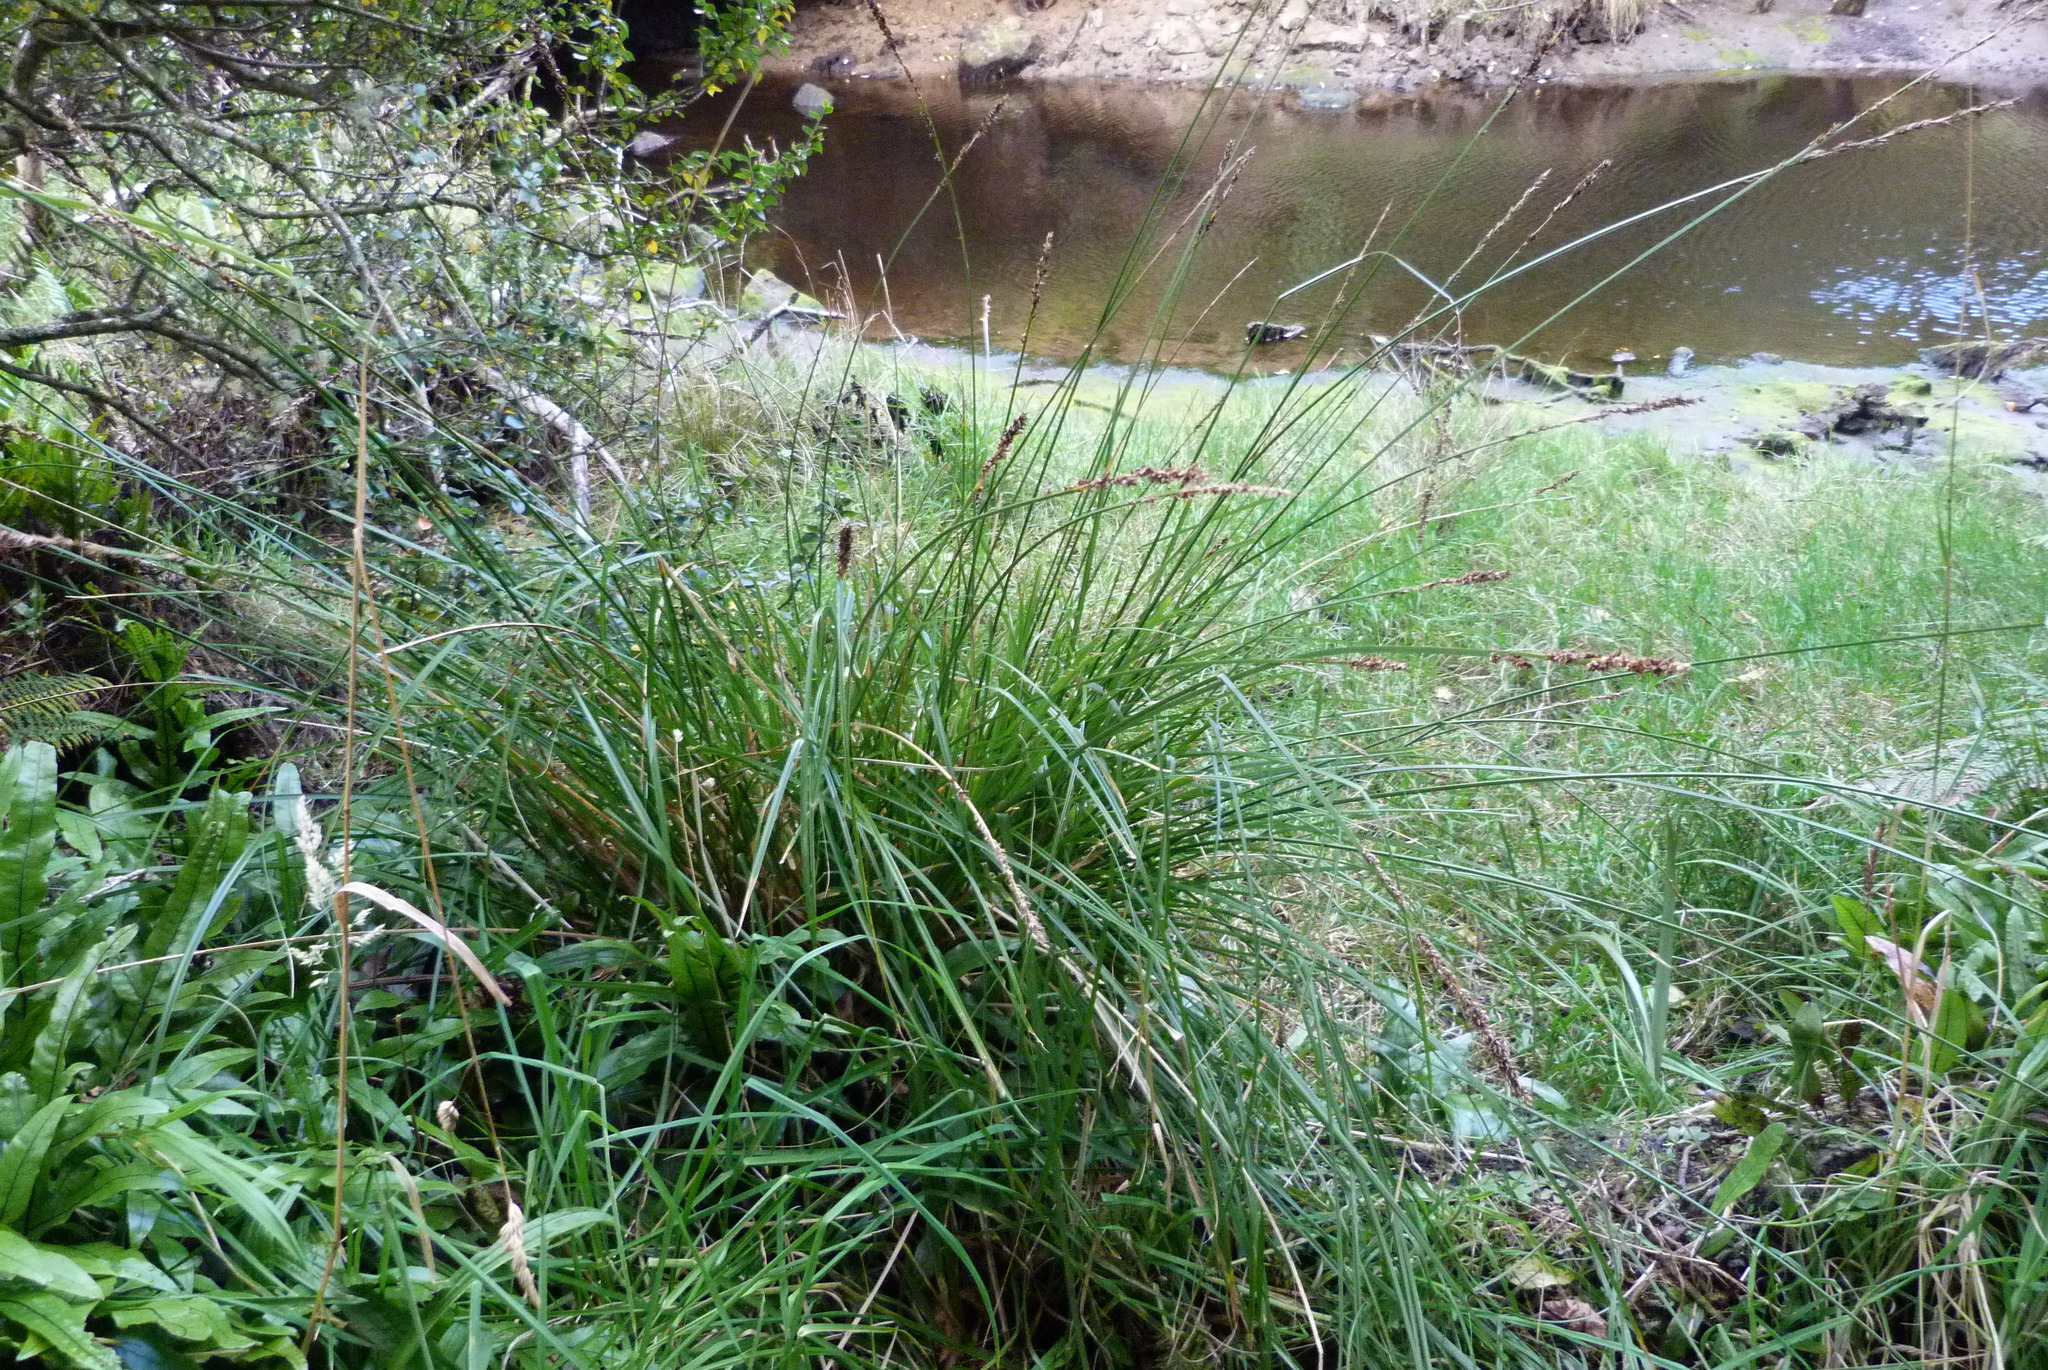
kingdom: Plantae
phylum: Tracheophyta
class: Liliopsida
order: Poales
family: Cyperaceae
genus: Carex
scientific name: Carex virgata
